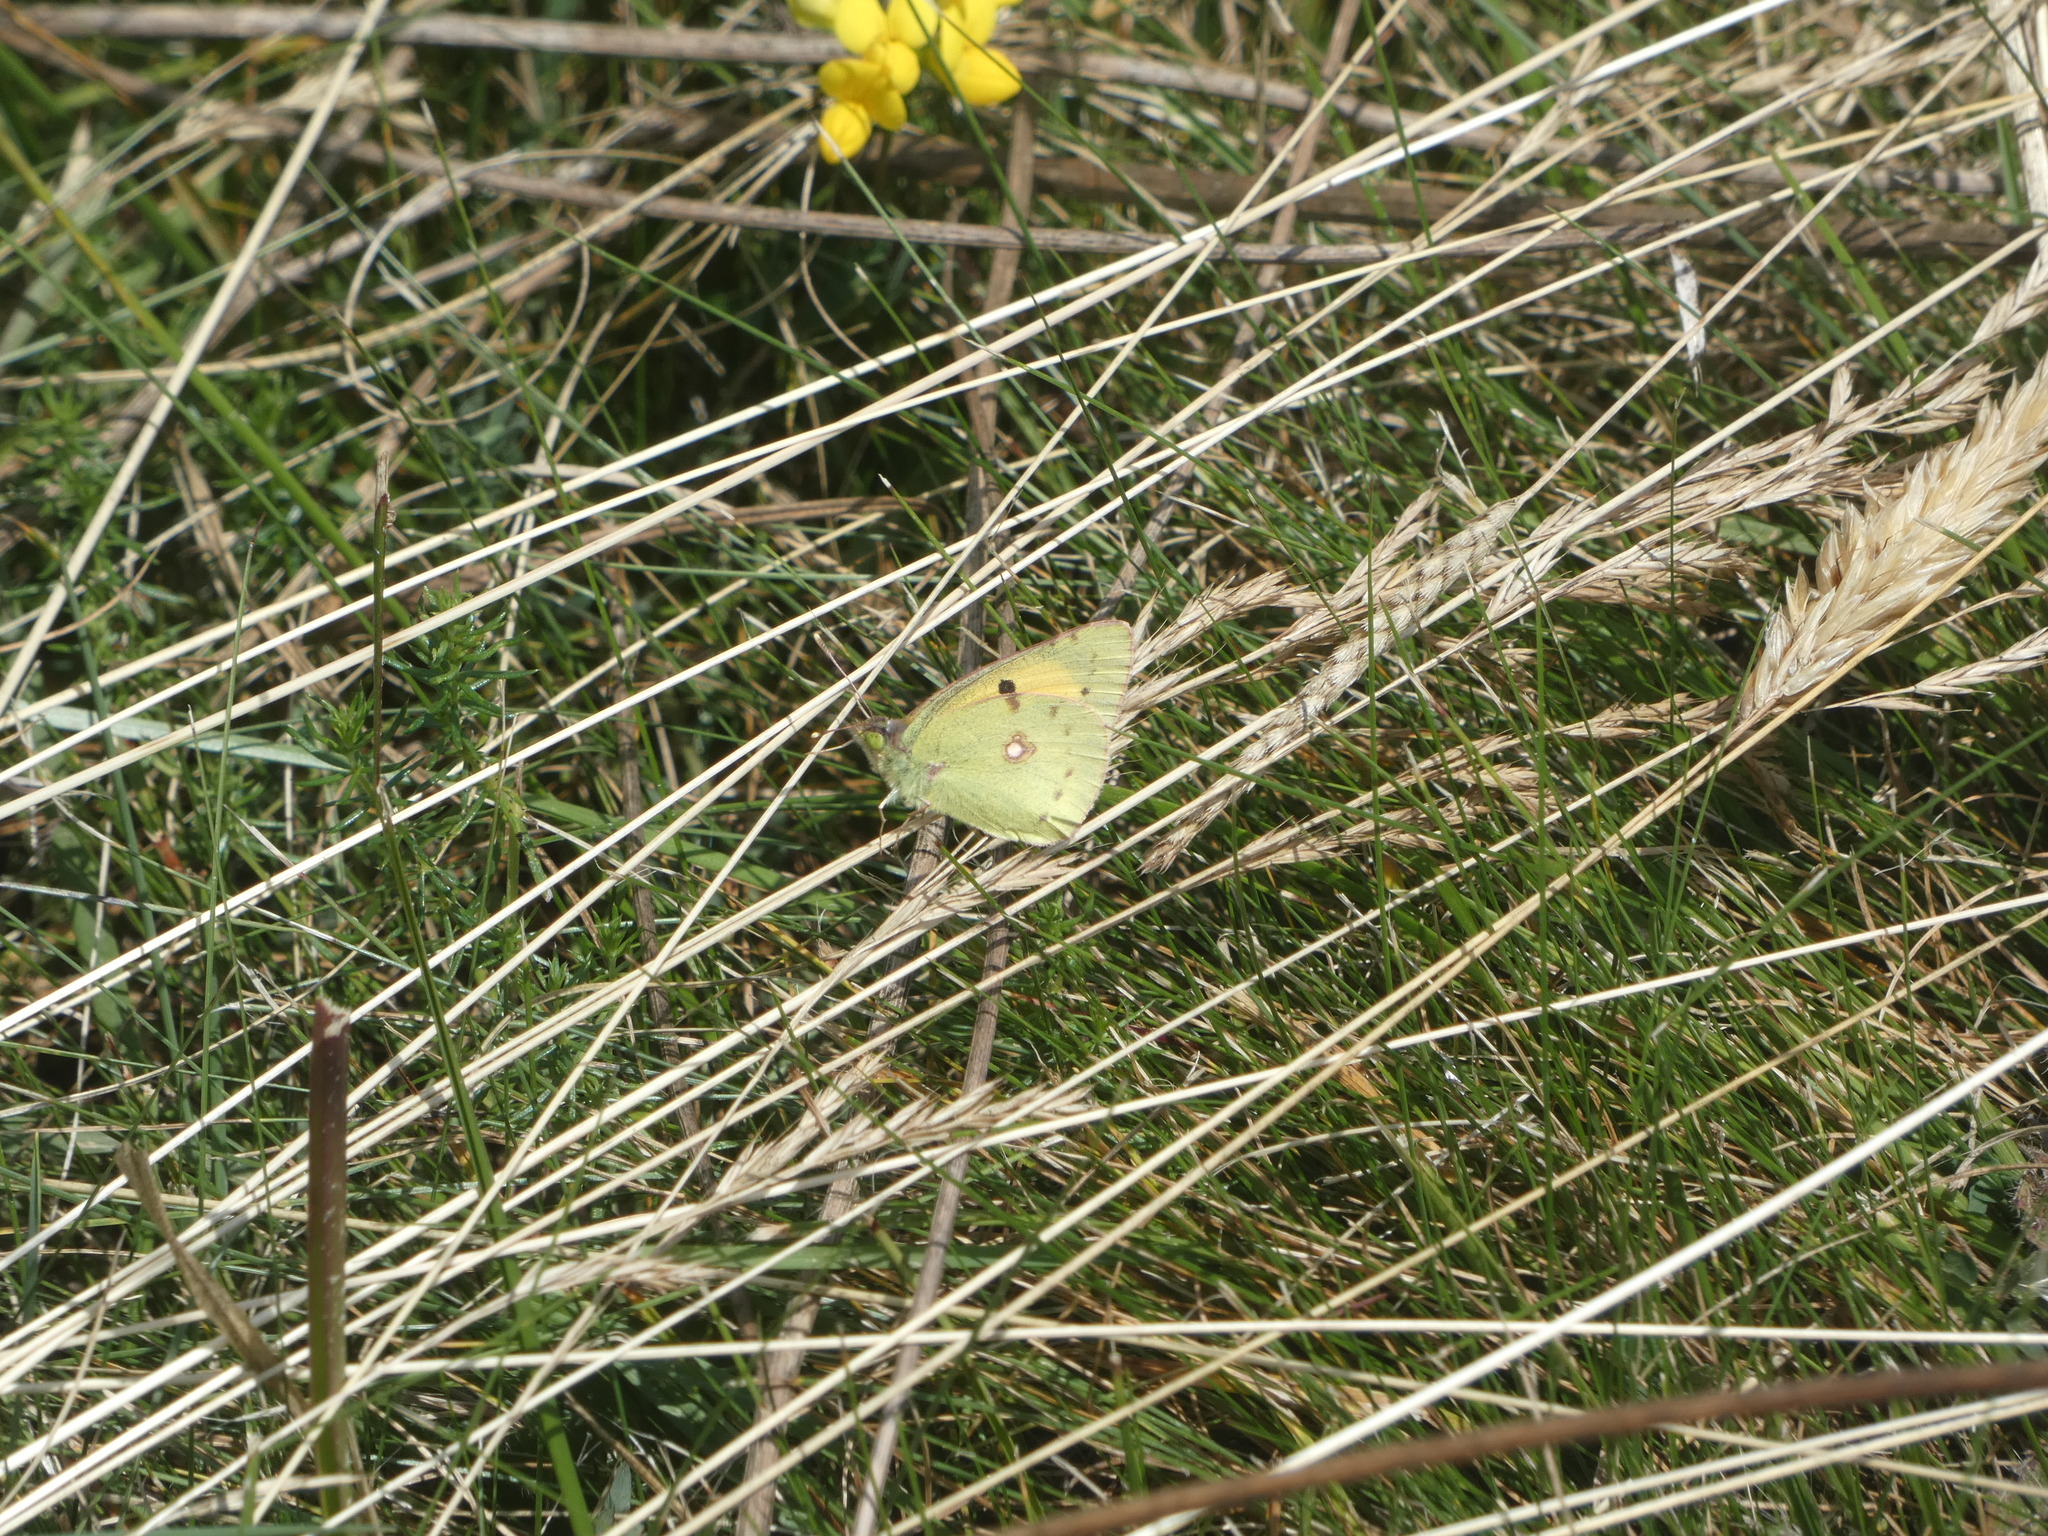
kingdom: Animalia
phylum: Arthropoda
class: Insecta
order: Lepidoptera
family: Pieridae
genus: Colias
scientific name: Colias croceus
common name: Clouded yellow
